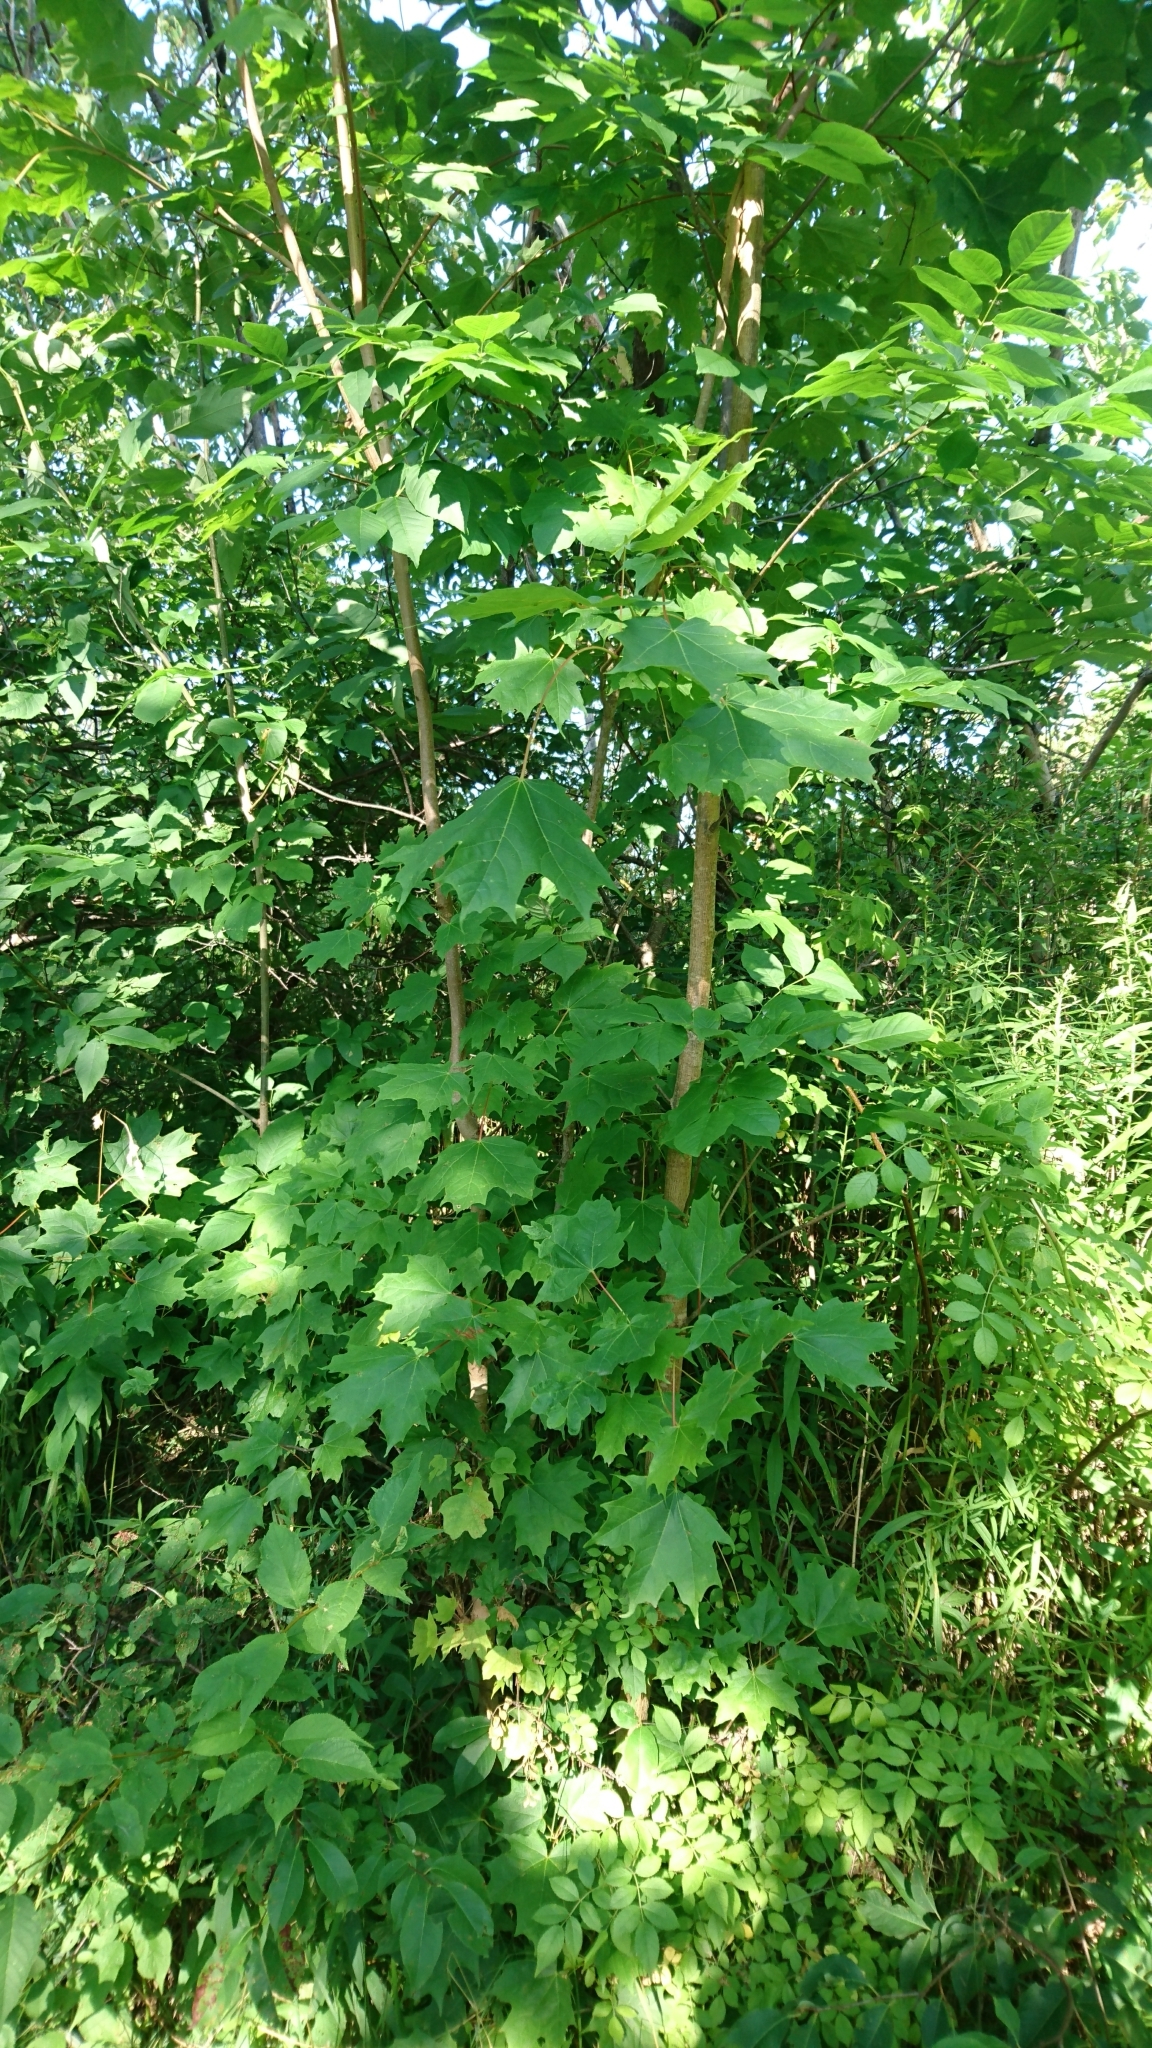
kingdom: Plantae
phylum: Tracheophyta
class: Magnoliopsida
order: Sapindales
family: Sapindaceae
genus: Acer
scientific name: Acer saccharum
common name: Sugar maple
